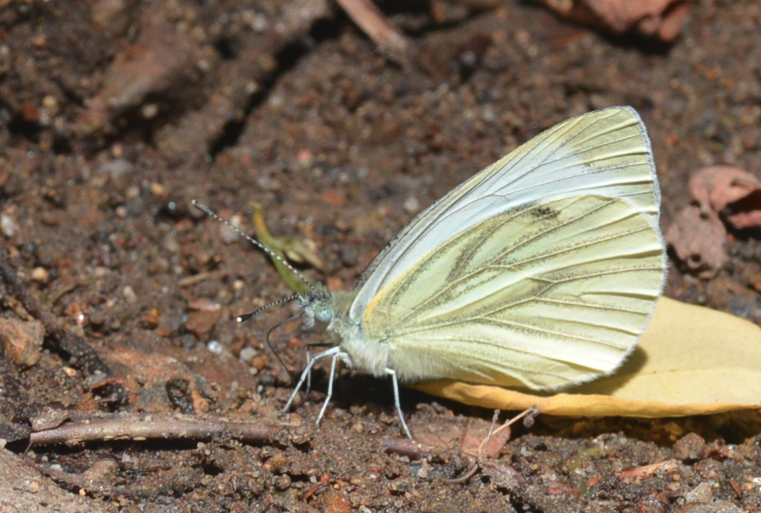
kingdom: Animalia
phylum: Arthropoda
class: Insecta
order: Lepidoptera
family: Pieridae
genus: Pieris
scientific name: Pieris napi
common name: Green-veined white
